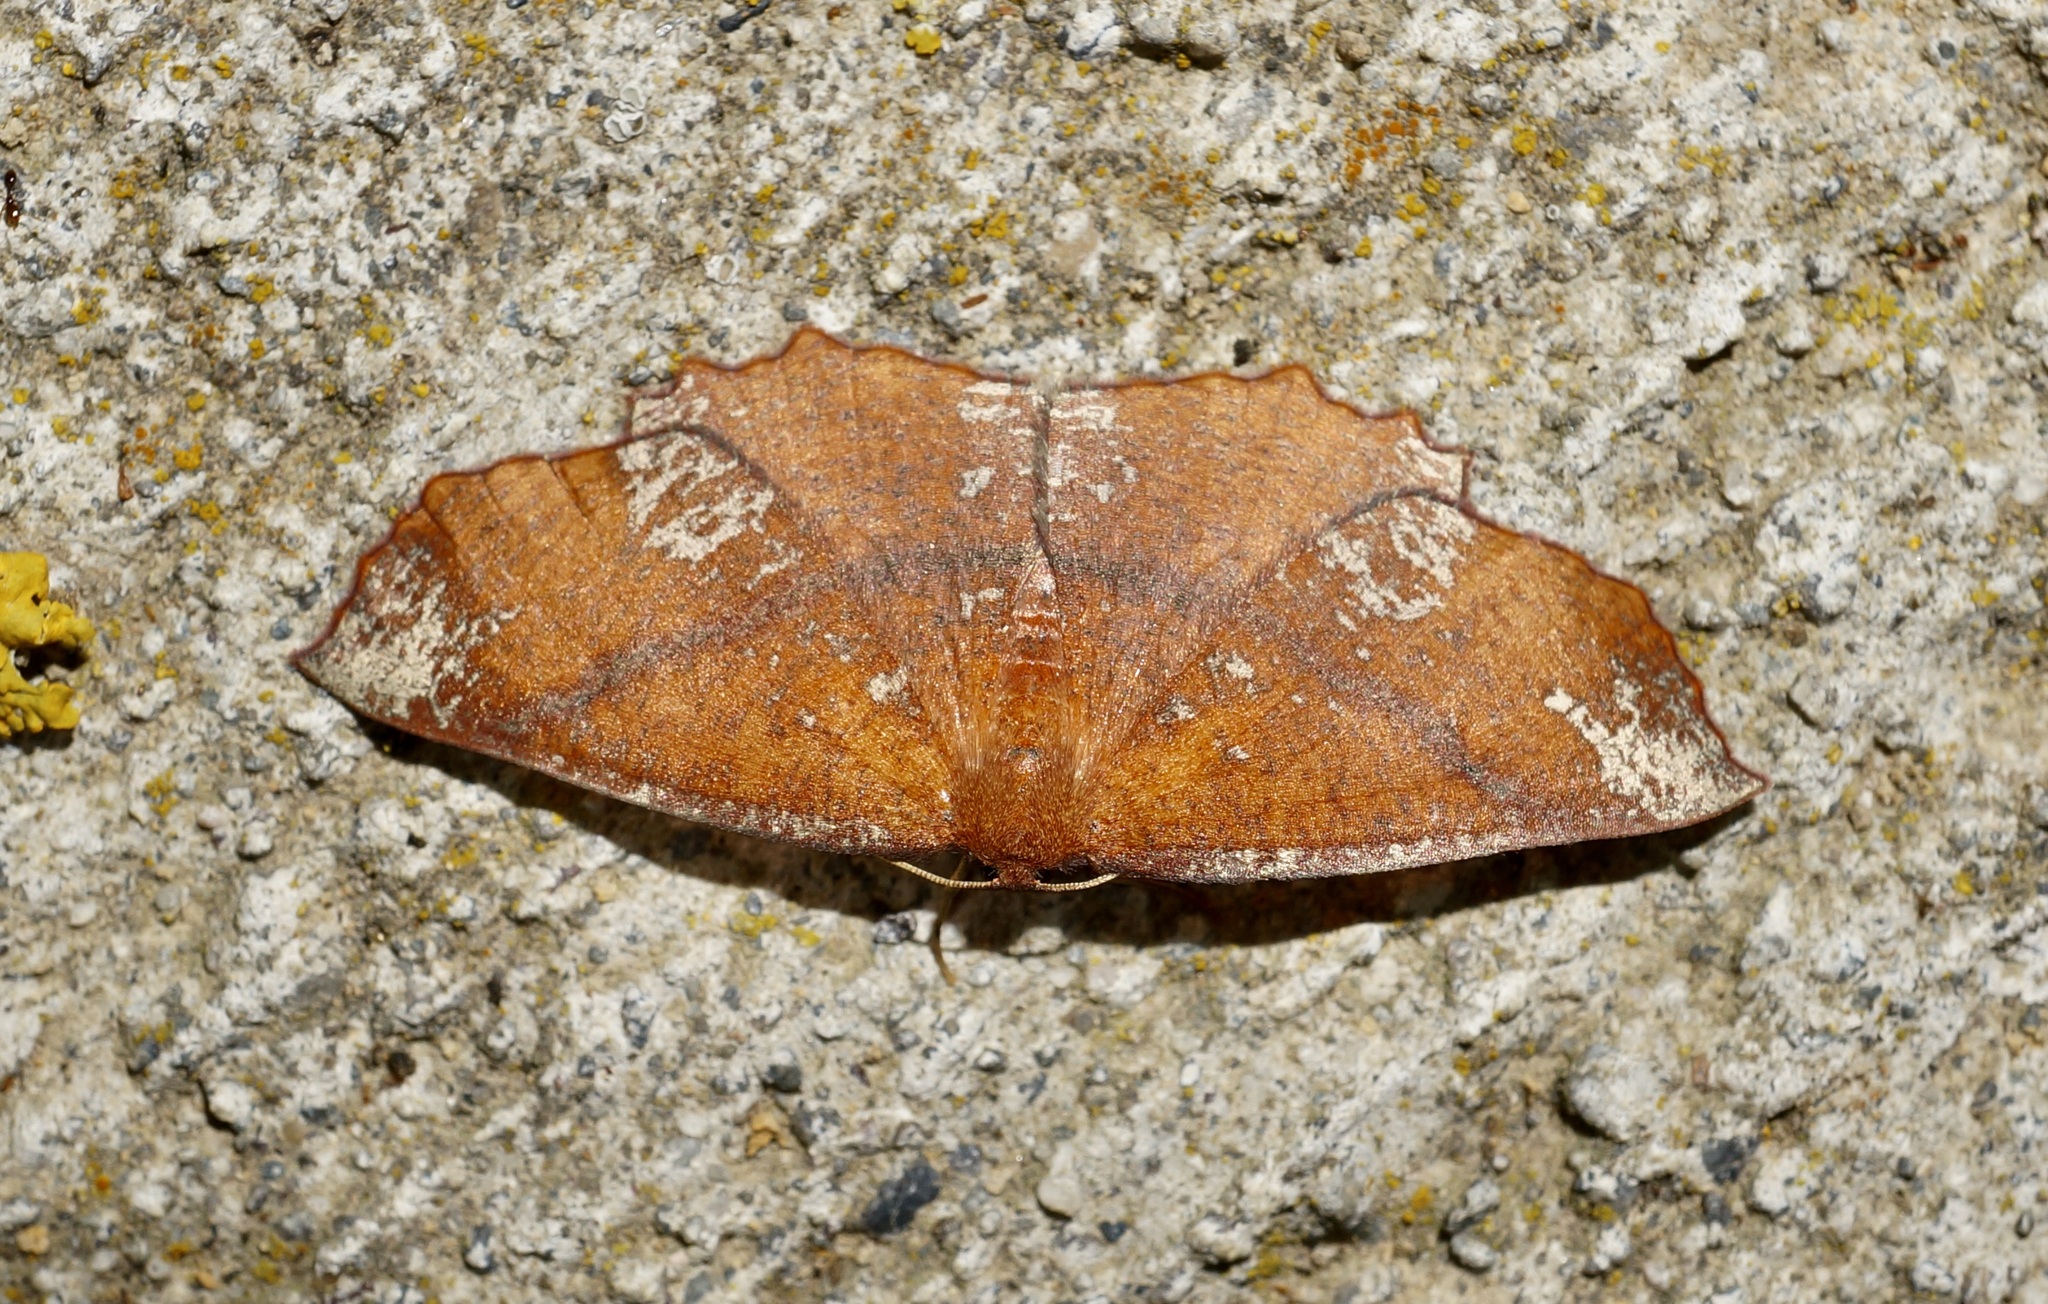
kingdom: Animalia
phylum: Arthropoda
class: Insecta
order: Lepidoptera
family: Geometridae
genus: Xyridacma
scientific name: Xyridacma ustaria
